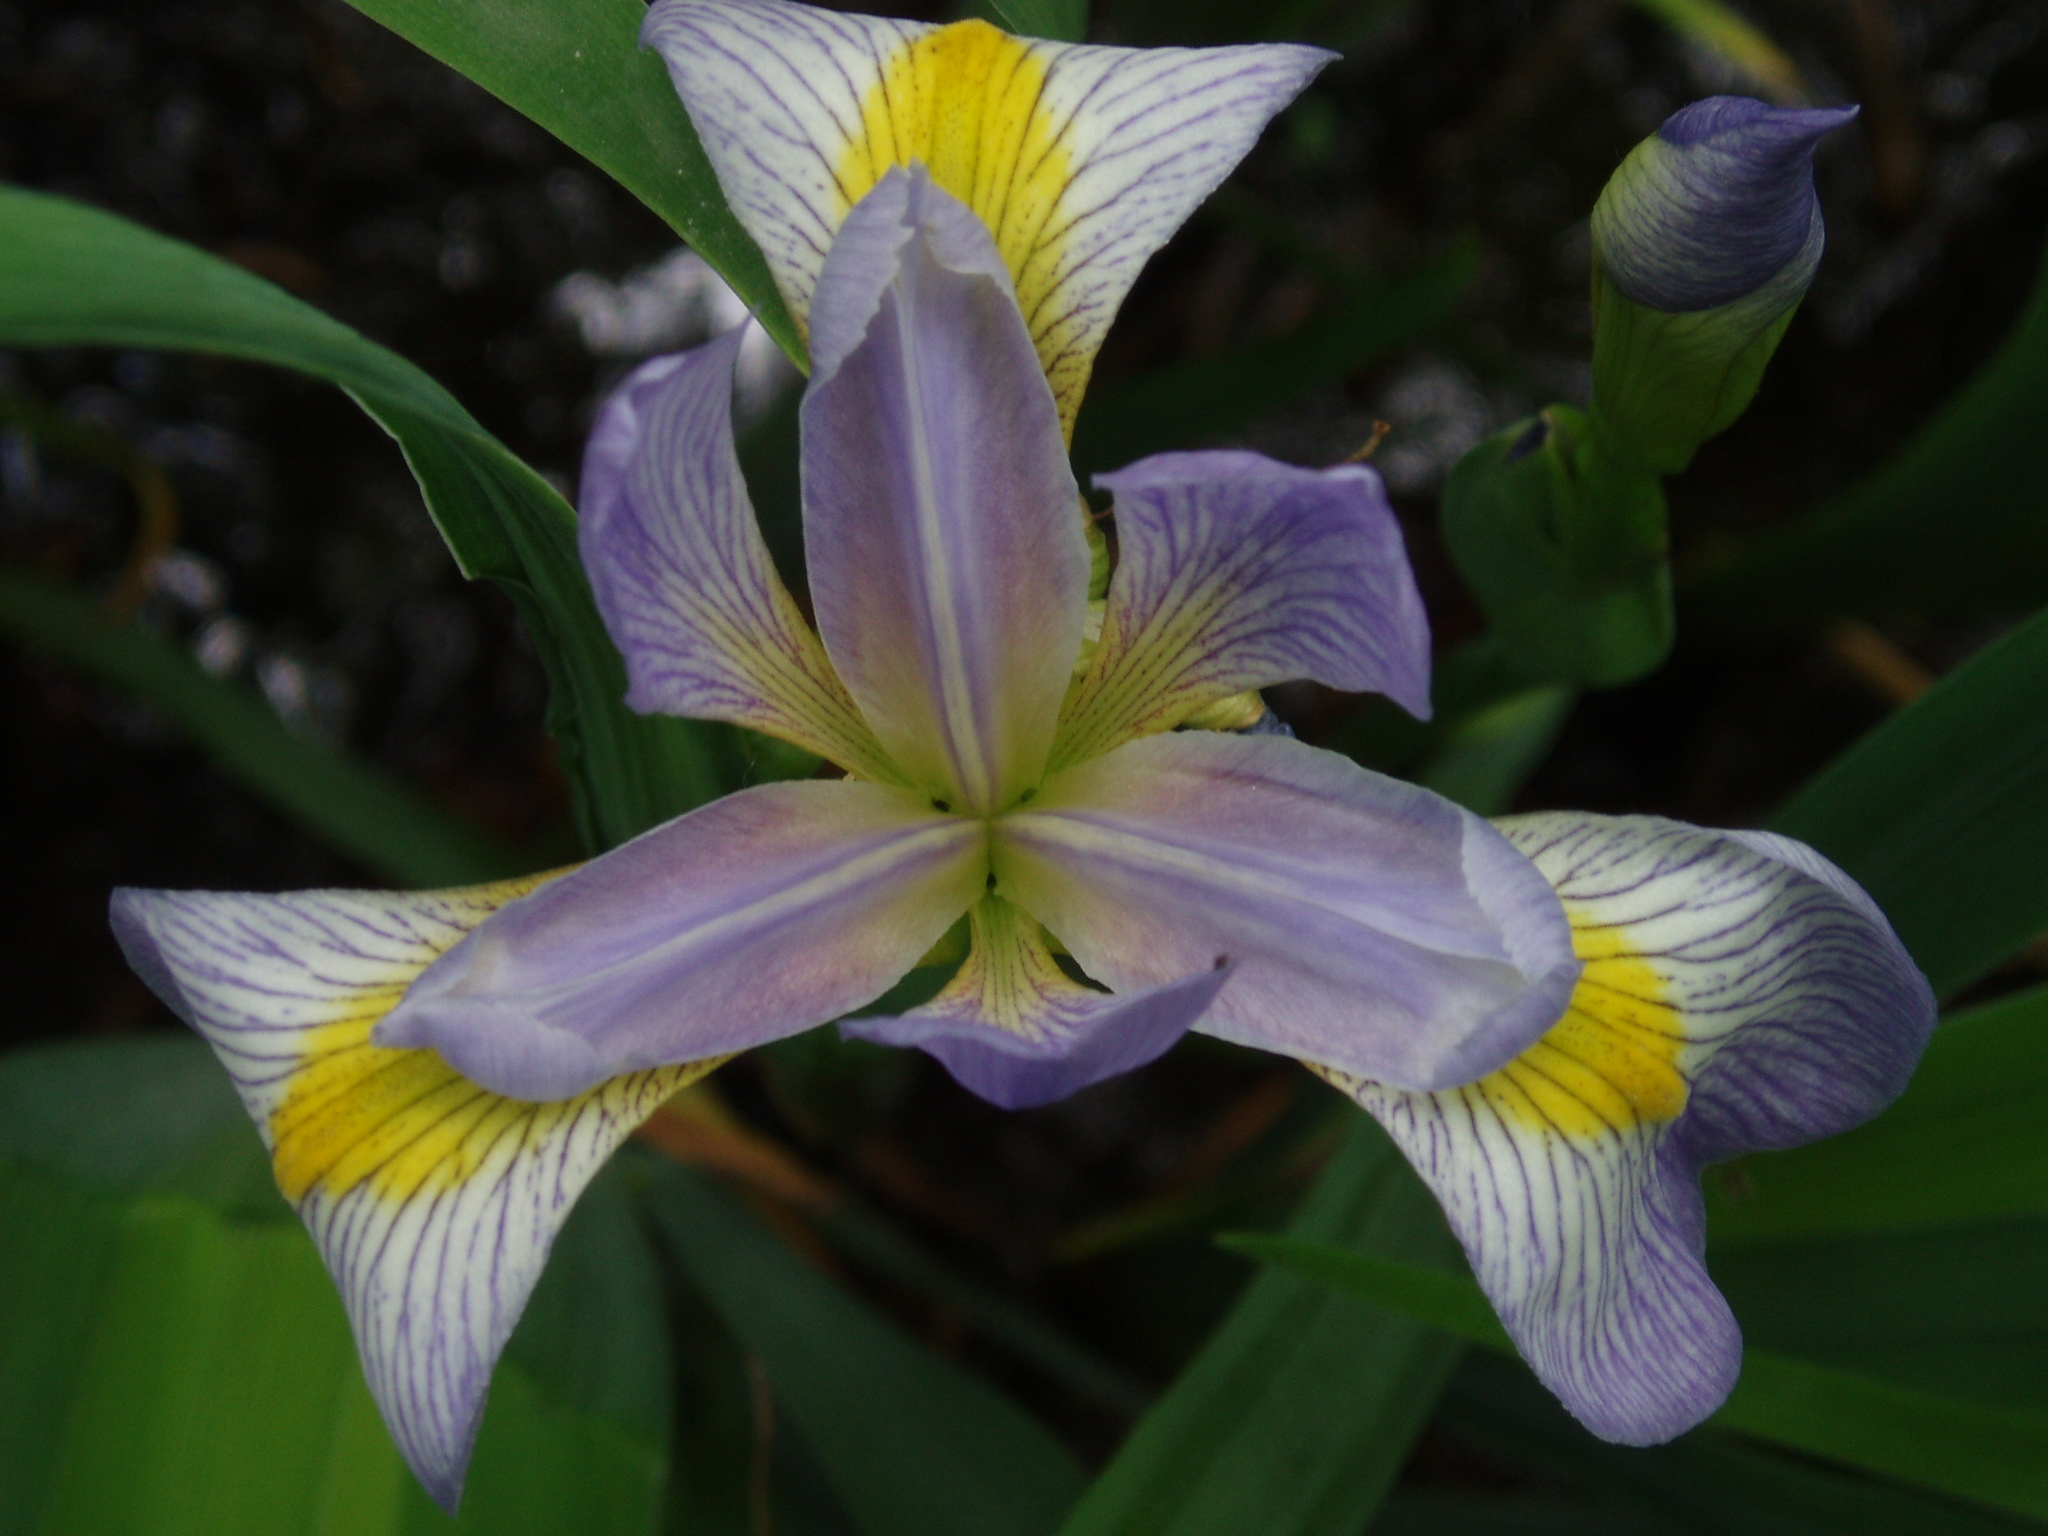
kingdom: Plantae
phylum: Tracheophyta
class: Liliopsida
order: Asparagales
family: Iridaceae
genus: Iris
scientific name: Iris virginica
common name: Southern blue flag
